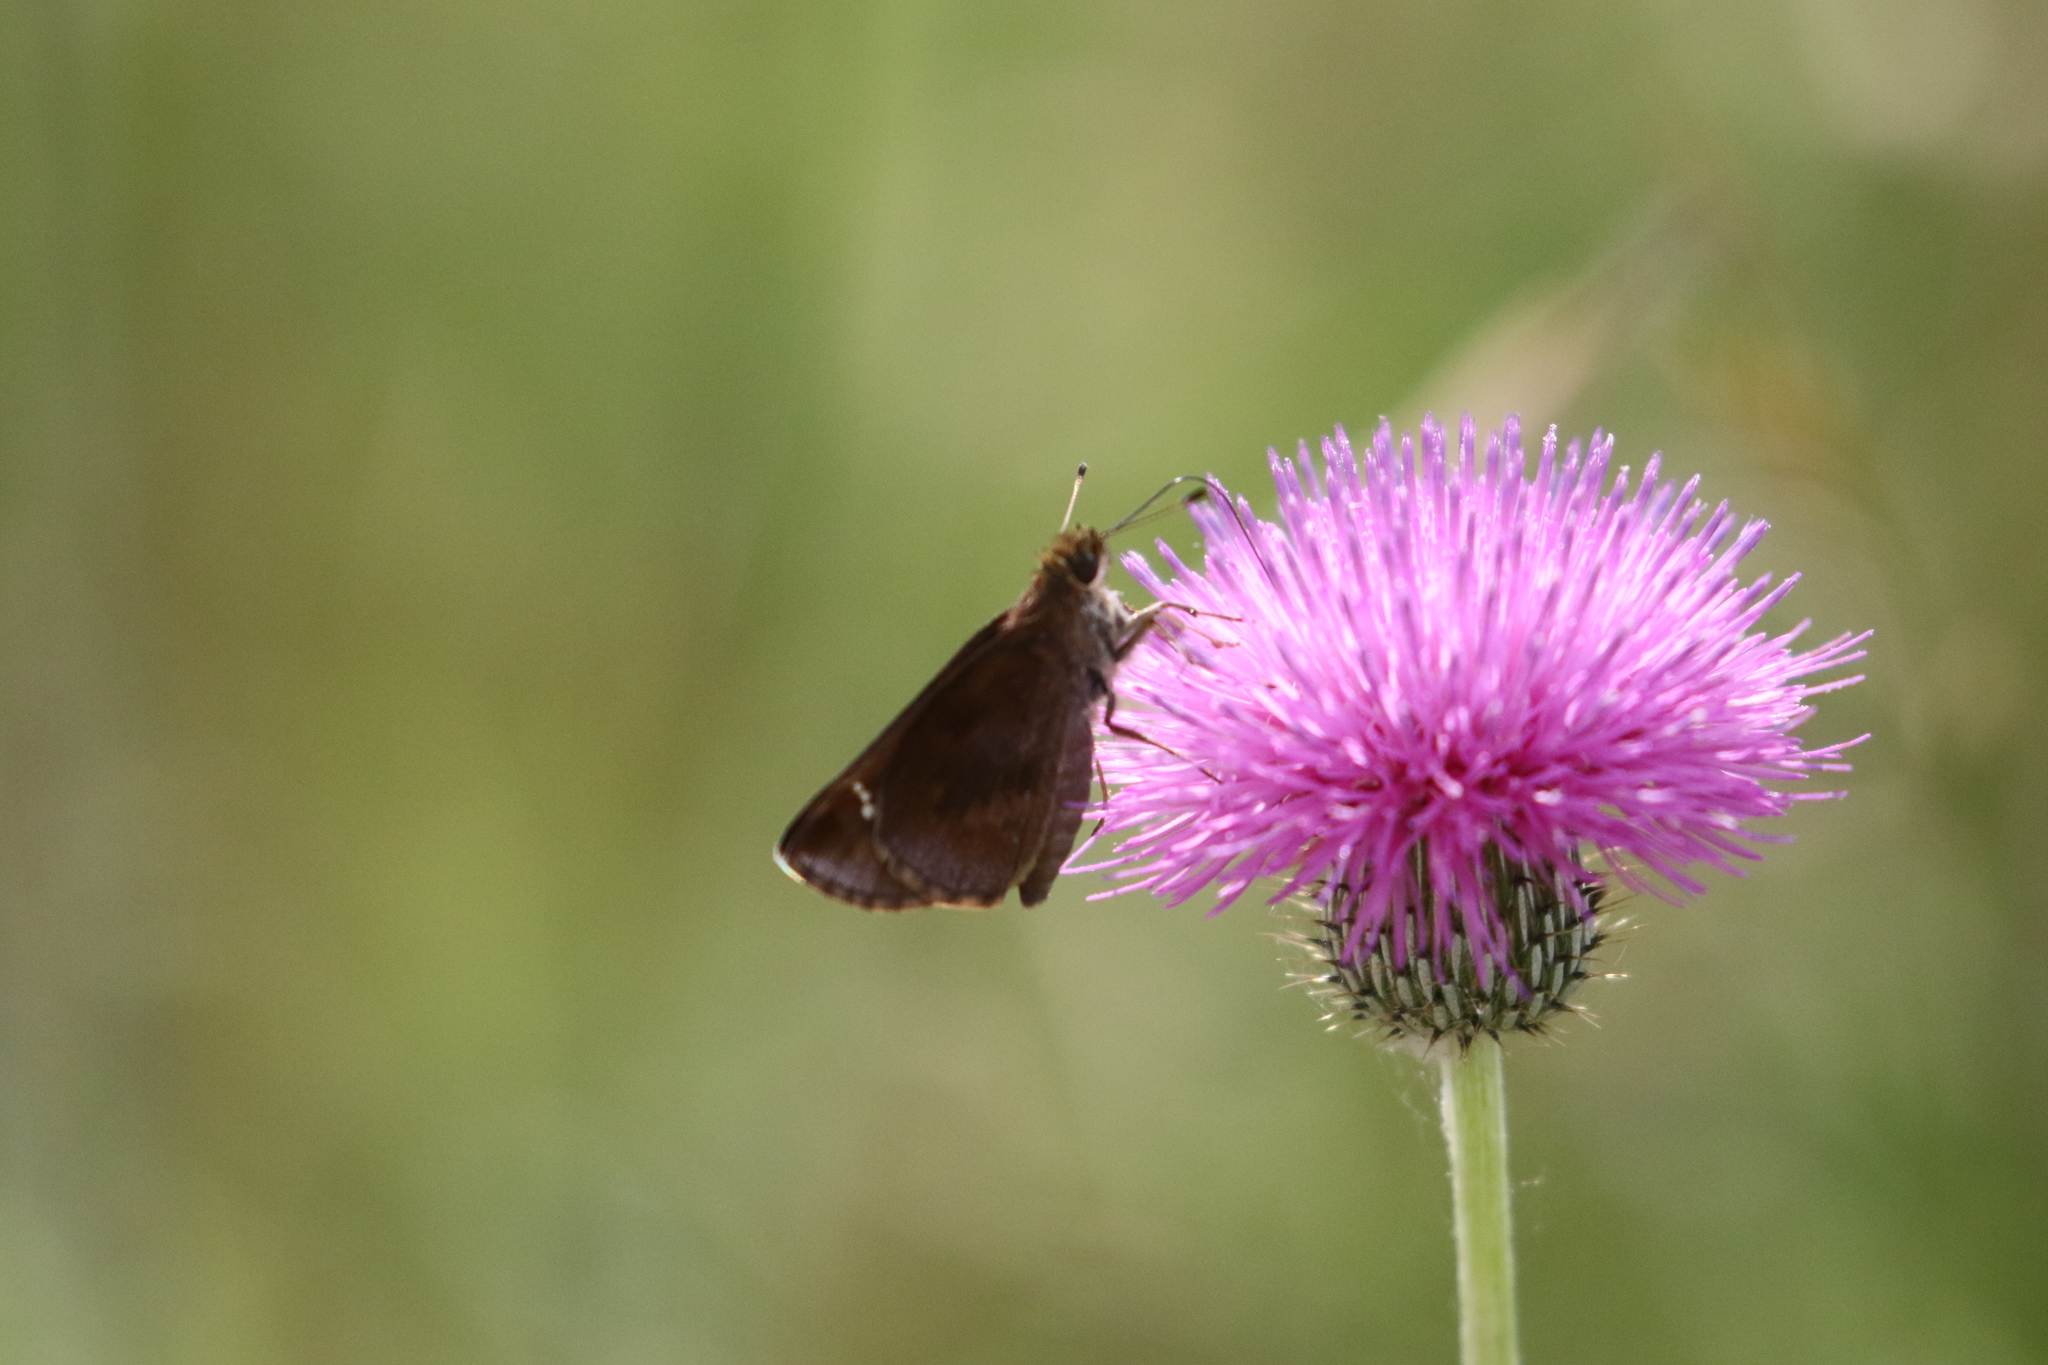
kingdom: Animalia
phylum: Arthropoda
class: Insecta
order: Lepidoptera
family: Hesperiidae
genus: Lerema
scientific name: Lerema accius
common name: Clouded skipper
